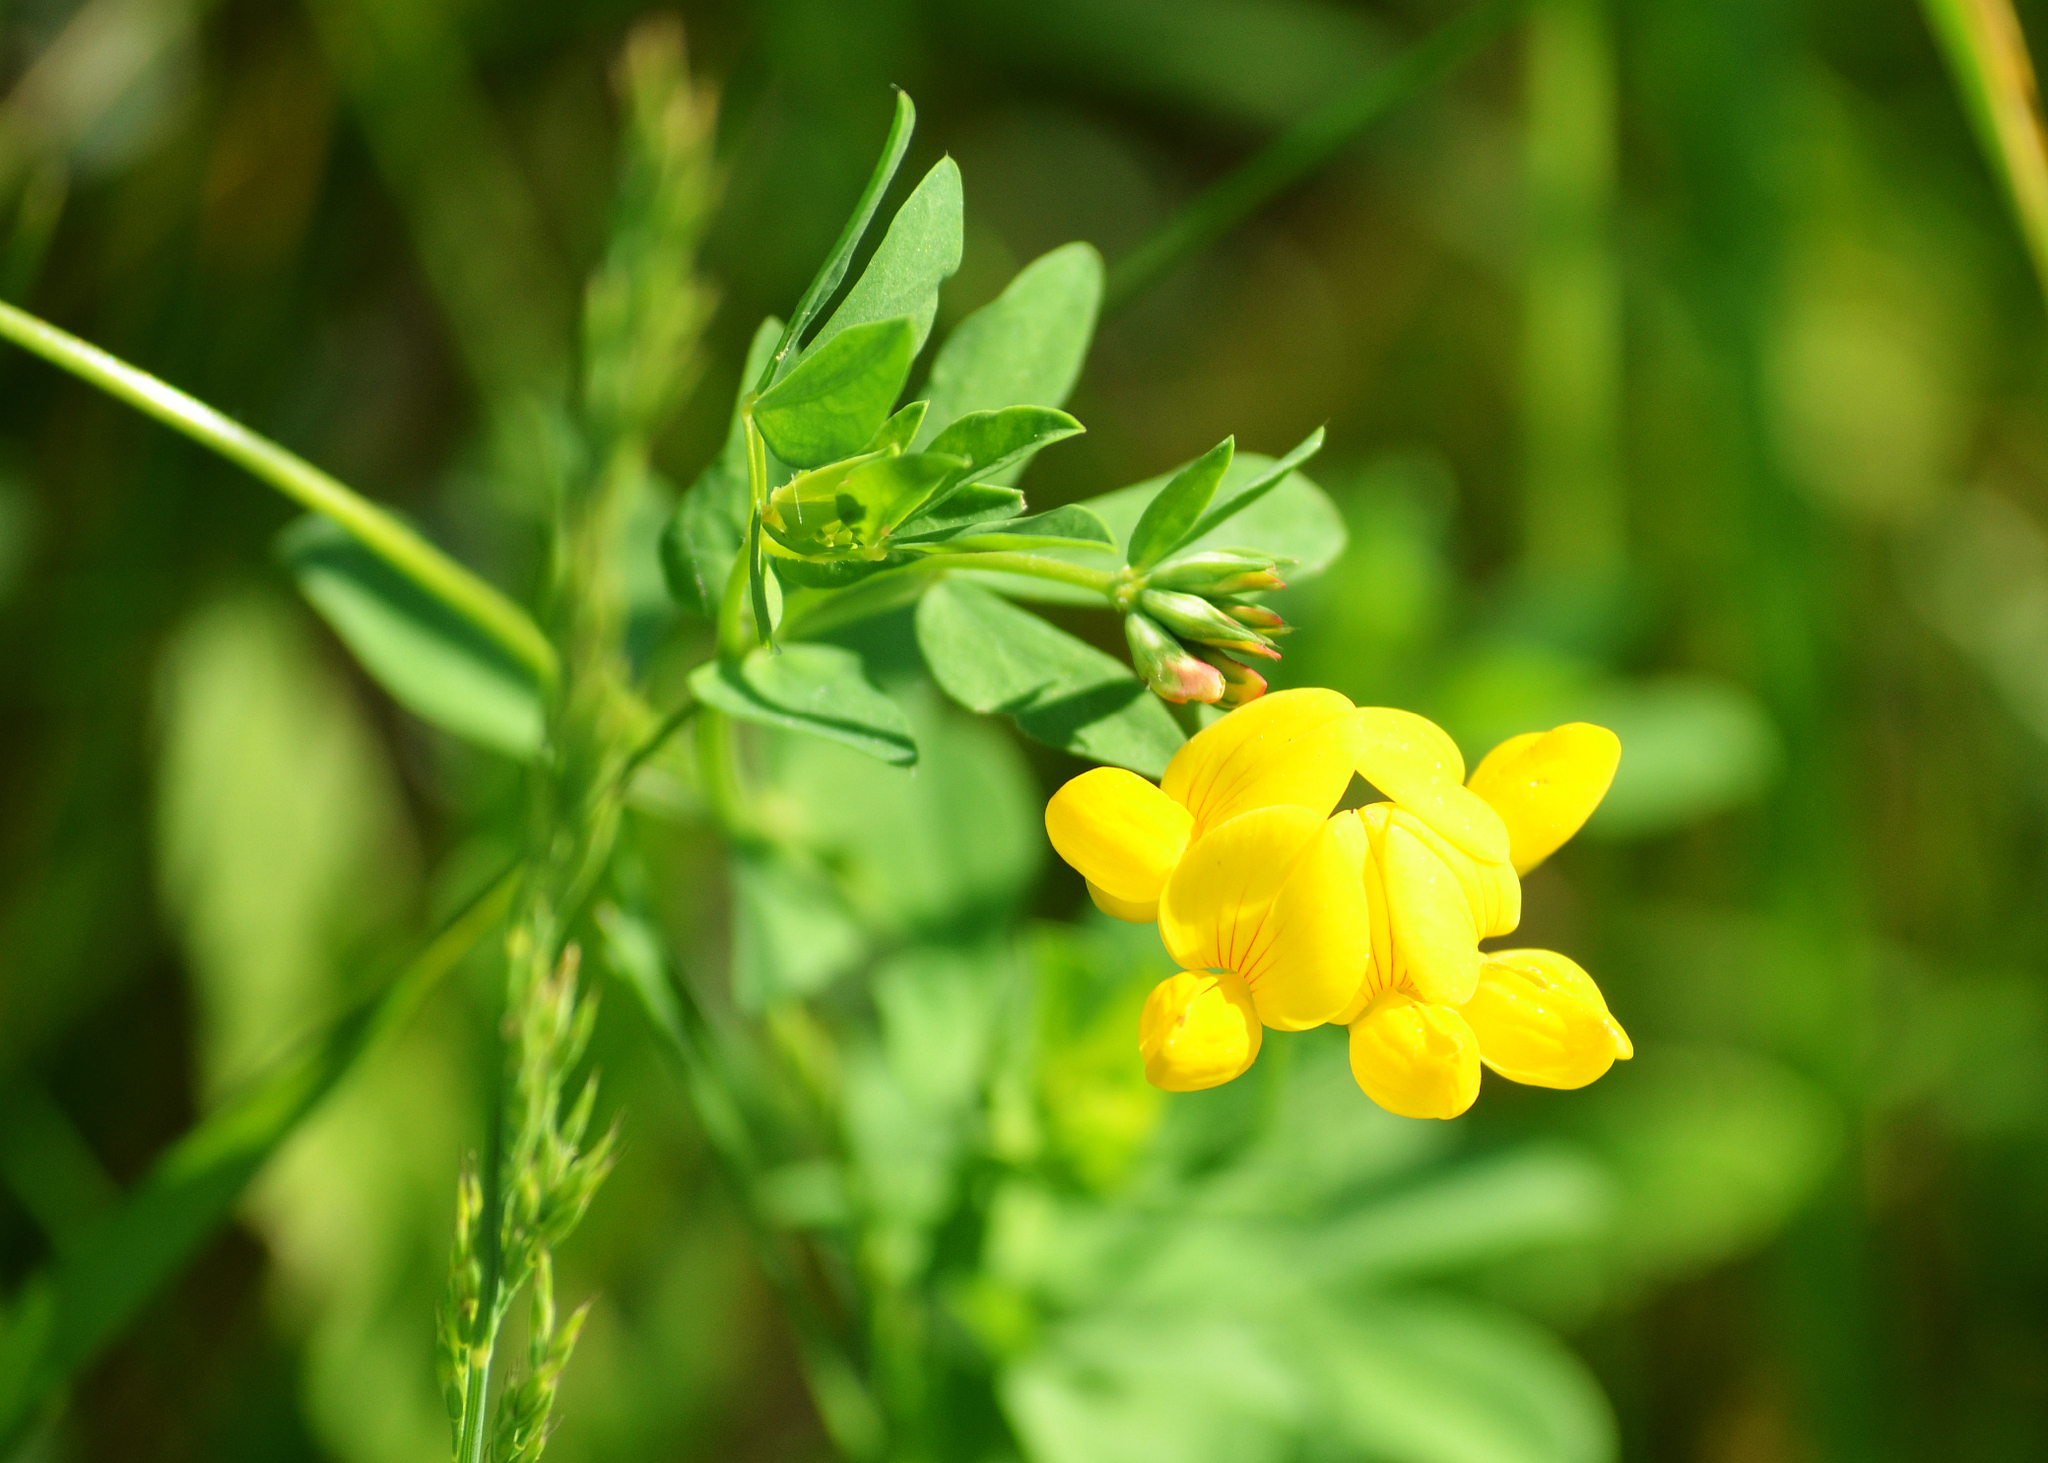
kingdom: Plantae
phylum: Tracheophyta
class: Magnoliopsida
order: Fabales
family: Fabaceae
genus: Lotus
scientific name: Lotus corniculatus
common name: Common bird's-foot-trefoil
